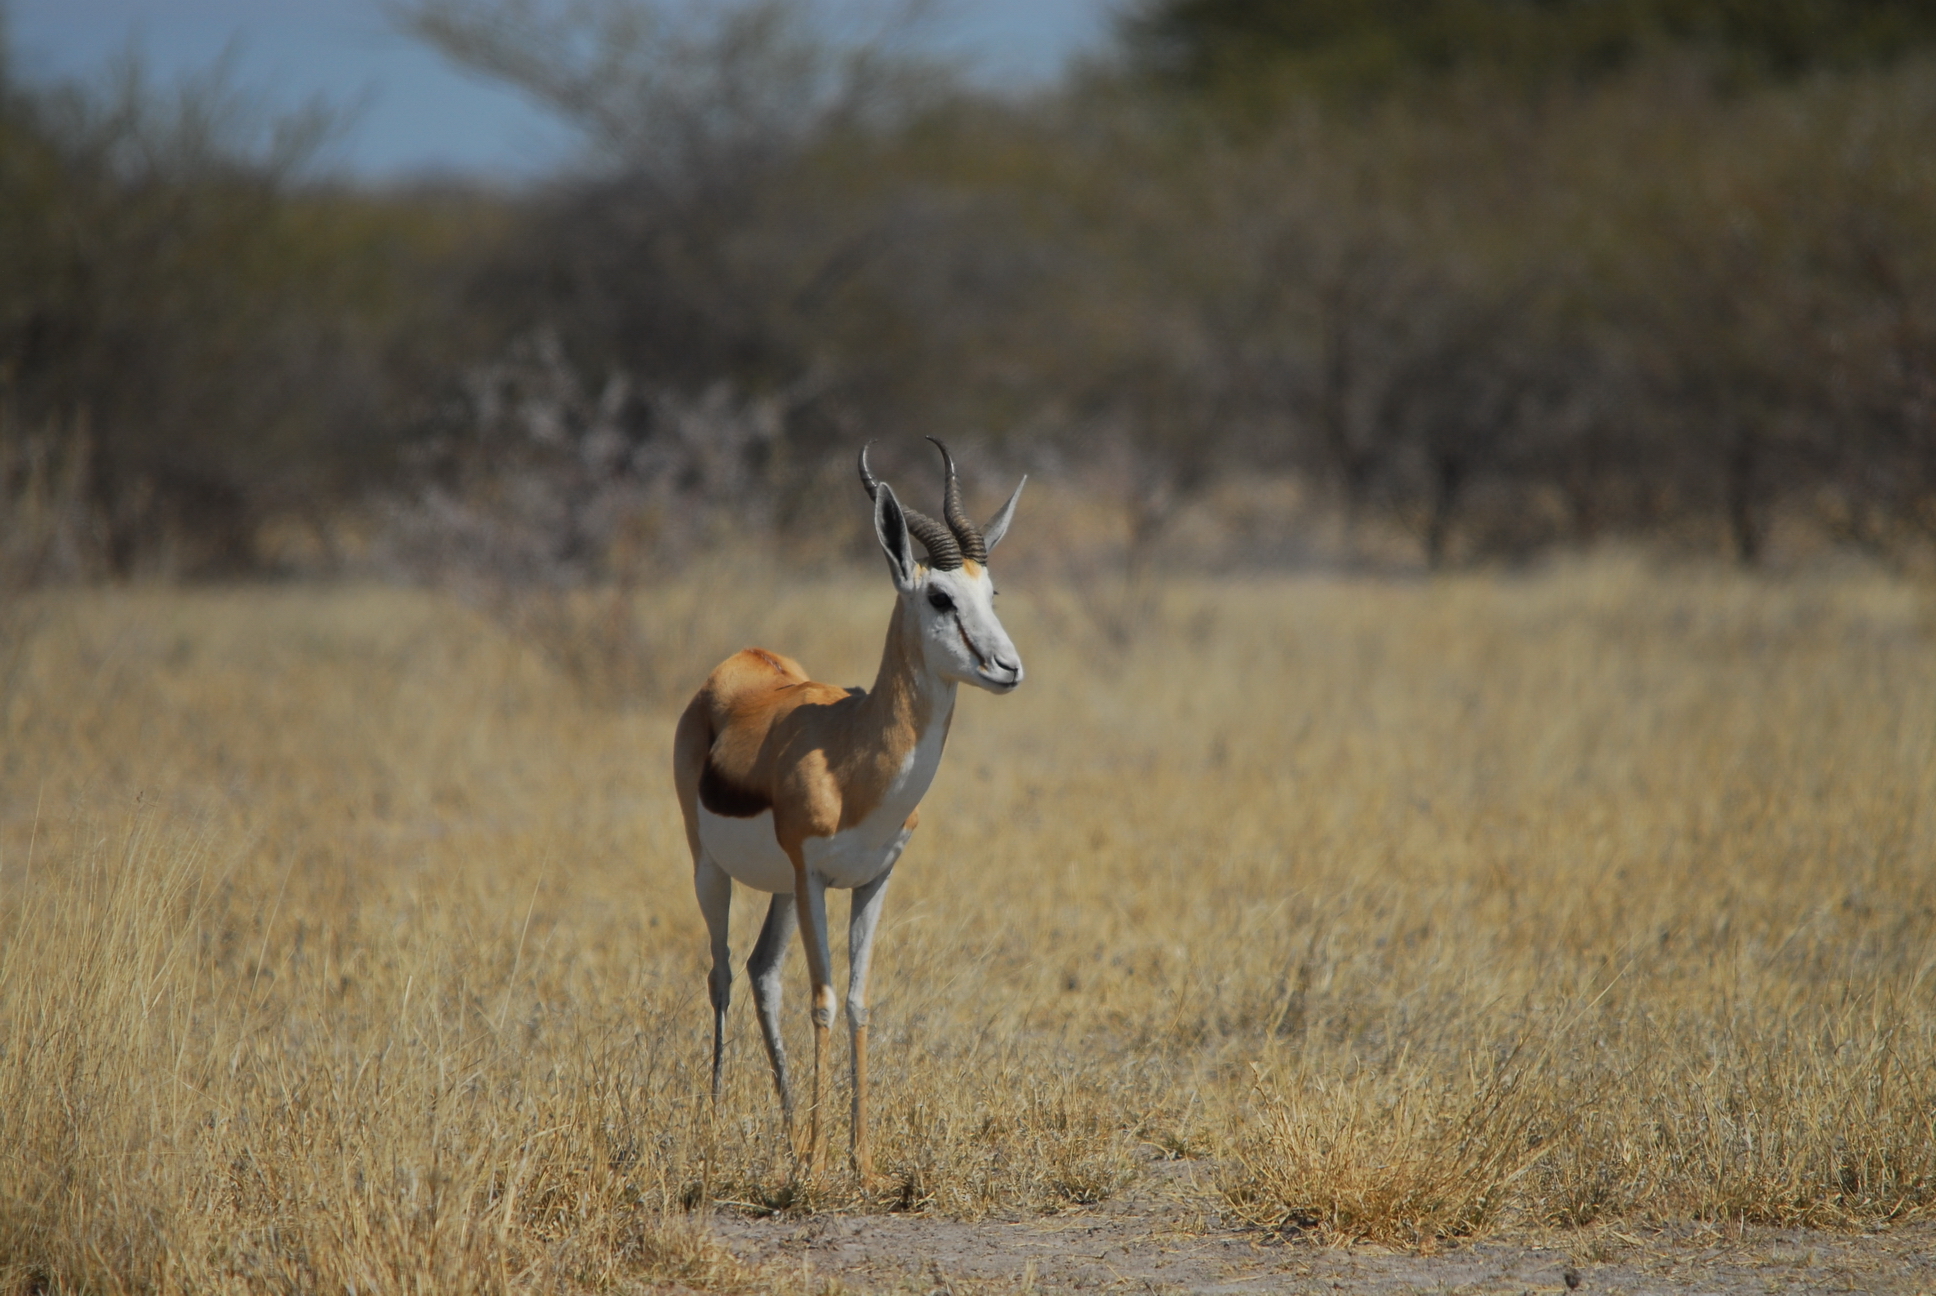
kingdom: Animalia
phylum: Chordata
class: Mammalia
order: Artiodactyla
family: Bovidae
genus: Antidorcas
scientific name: Antidorcas marsupialis
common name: Springbok
